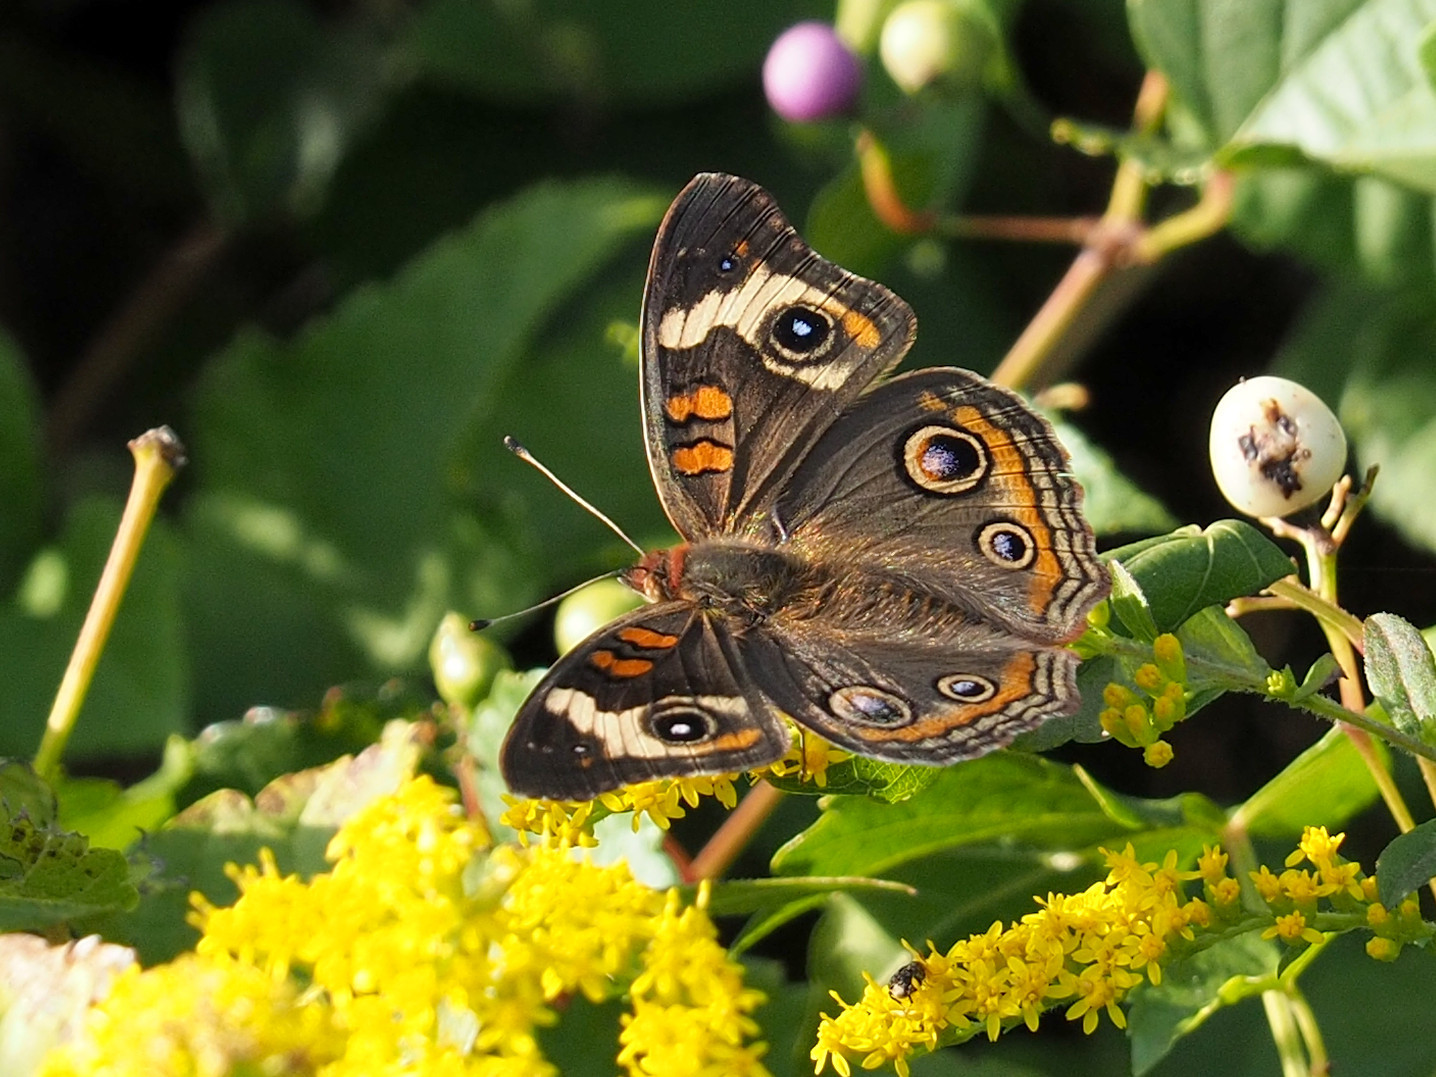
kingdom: Animalia
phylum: Arthropoda
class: Insecta
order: Lepidoptera
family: Nymphalidae
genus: Junonia
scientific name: Junonia coenia
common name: Common buckeye
